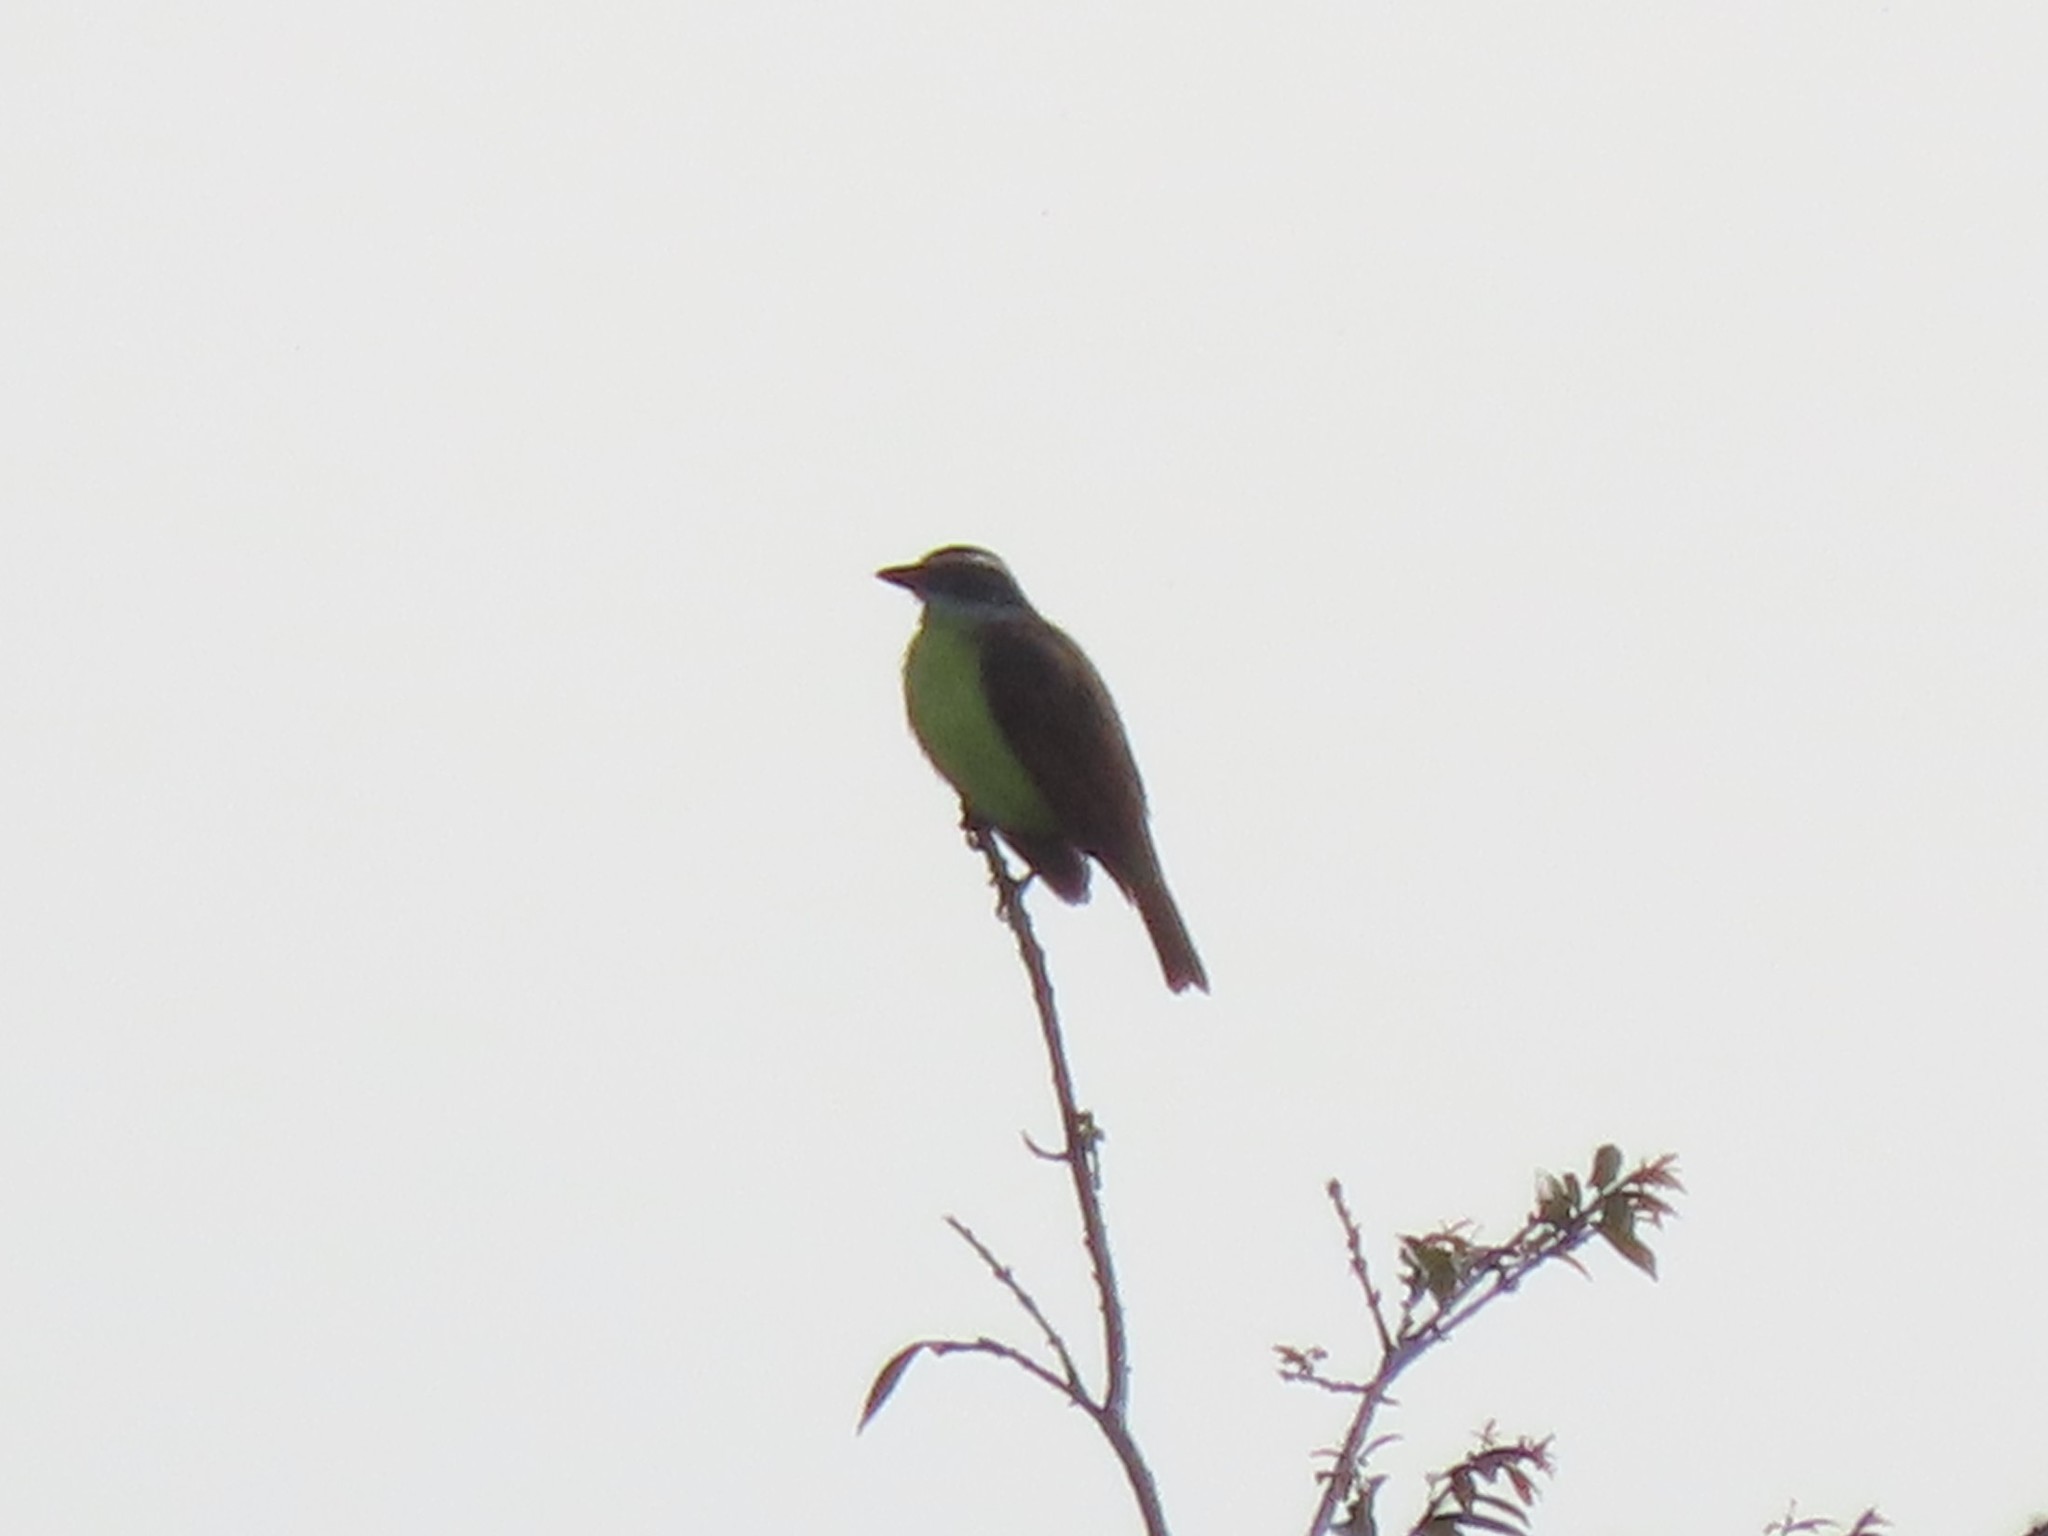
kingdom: Animalia
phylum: Chordata
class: Aves
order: Passeriformes
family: Tyrannidae
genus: Pitangus
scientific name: Pitangus sulphuratus
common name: Great kiskadee
